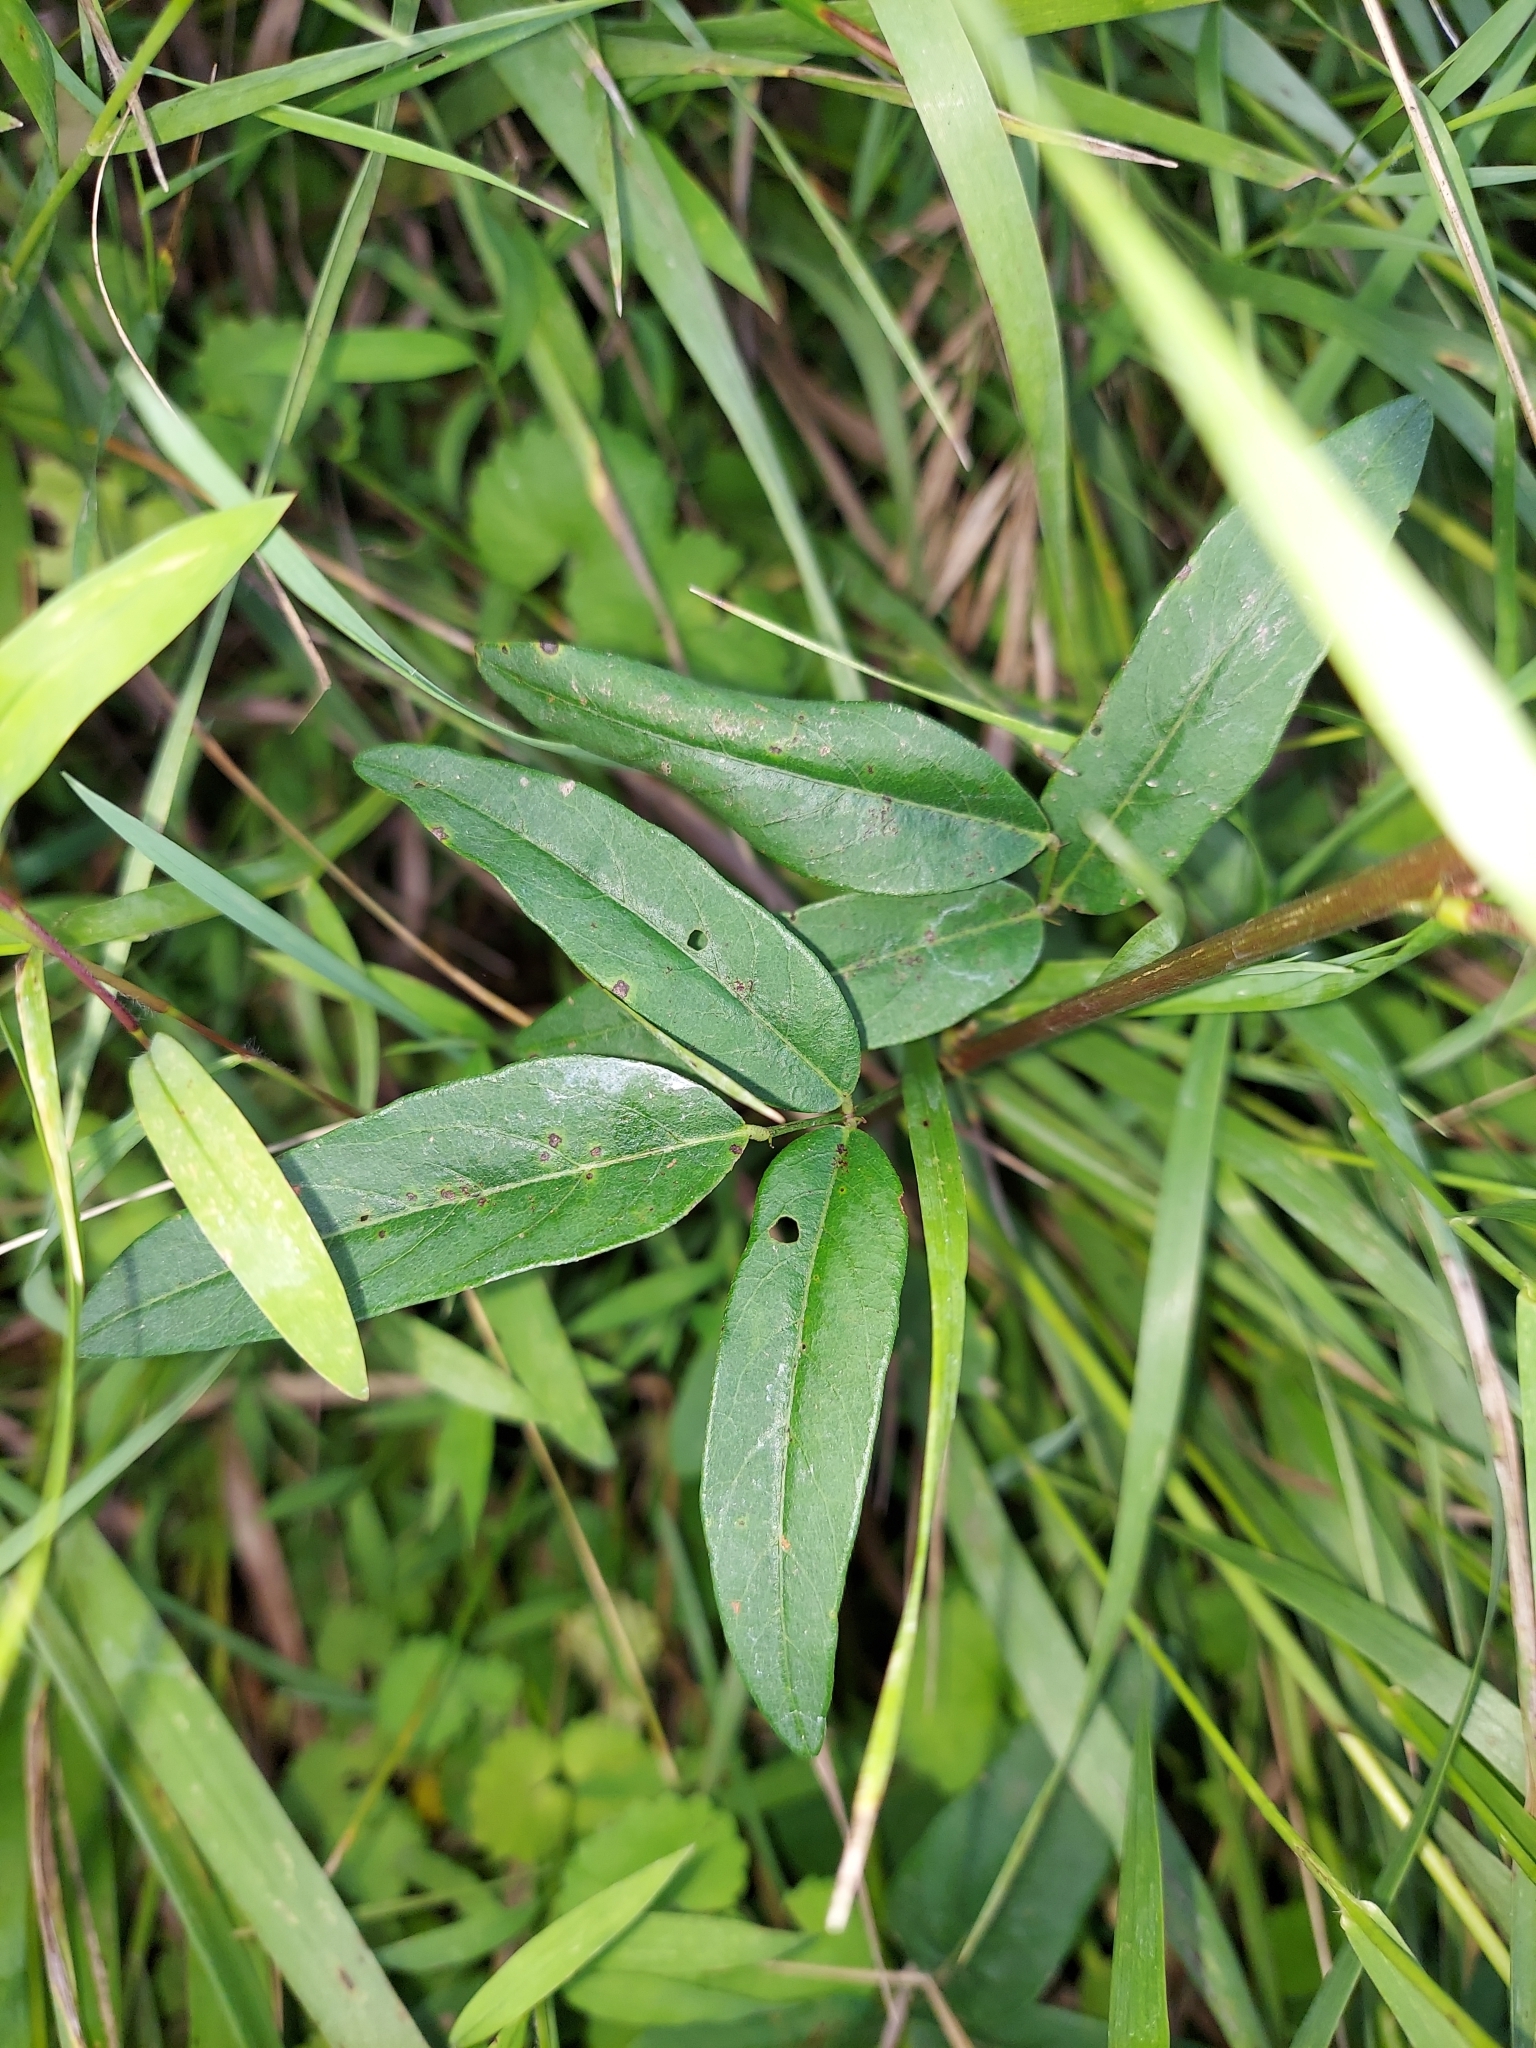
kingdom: Plantae
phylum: Tracheophyta
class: Magnoliopsida
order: Fabales
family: Fabaceae
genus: Desmodium
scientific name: Desmodium paniculatum
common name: Panicled tick-clover
